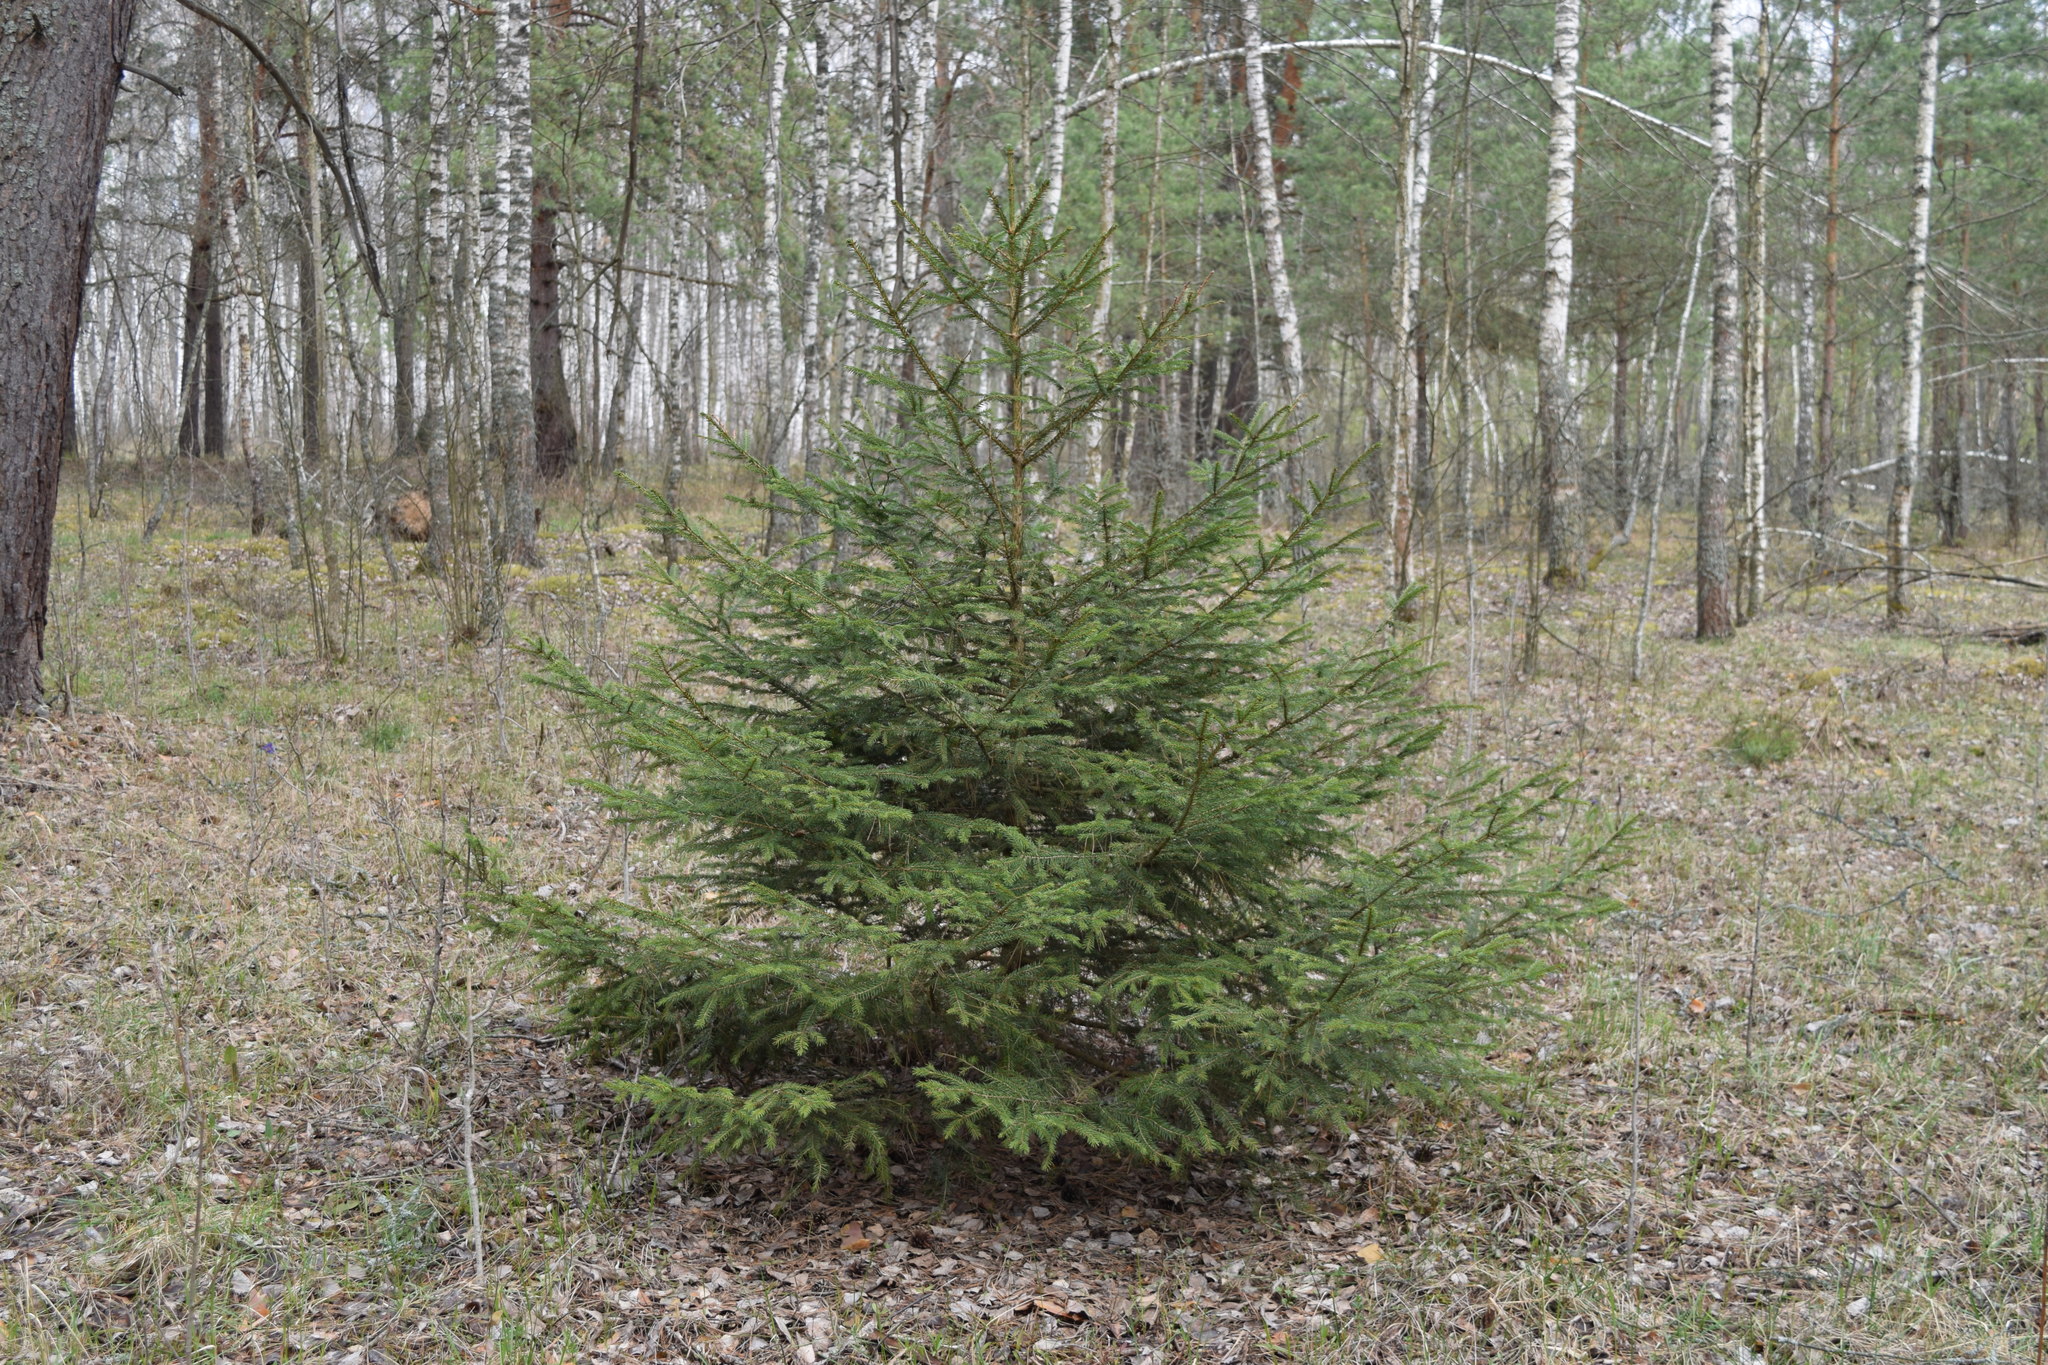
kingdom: Plantae
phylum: Tracheophyta
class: Pinopsida
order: Pinales
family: Pinaceae
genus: Picea
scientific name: Picea abies
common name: Norway spruce
